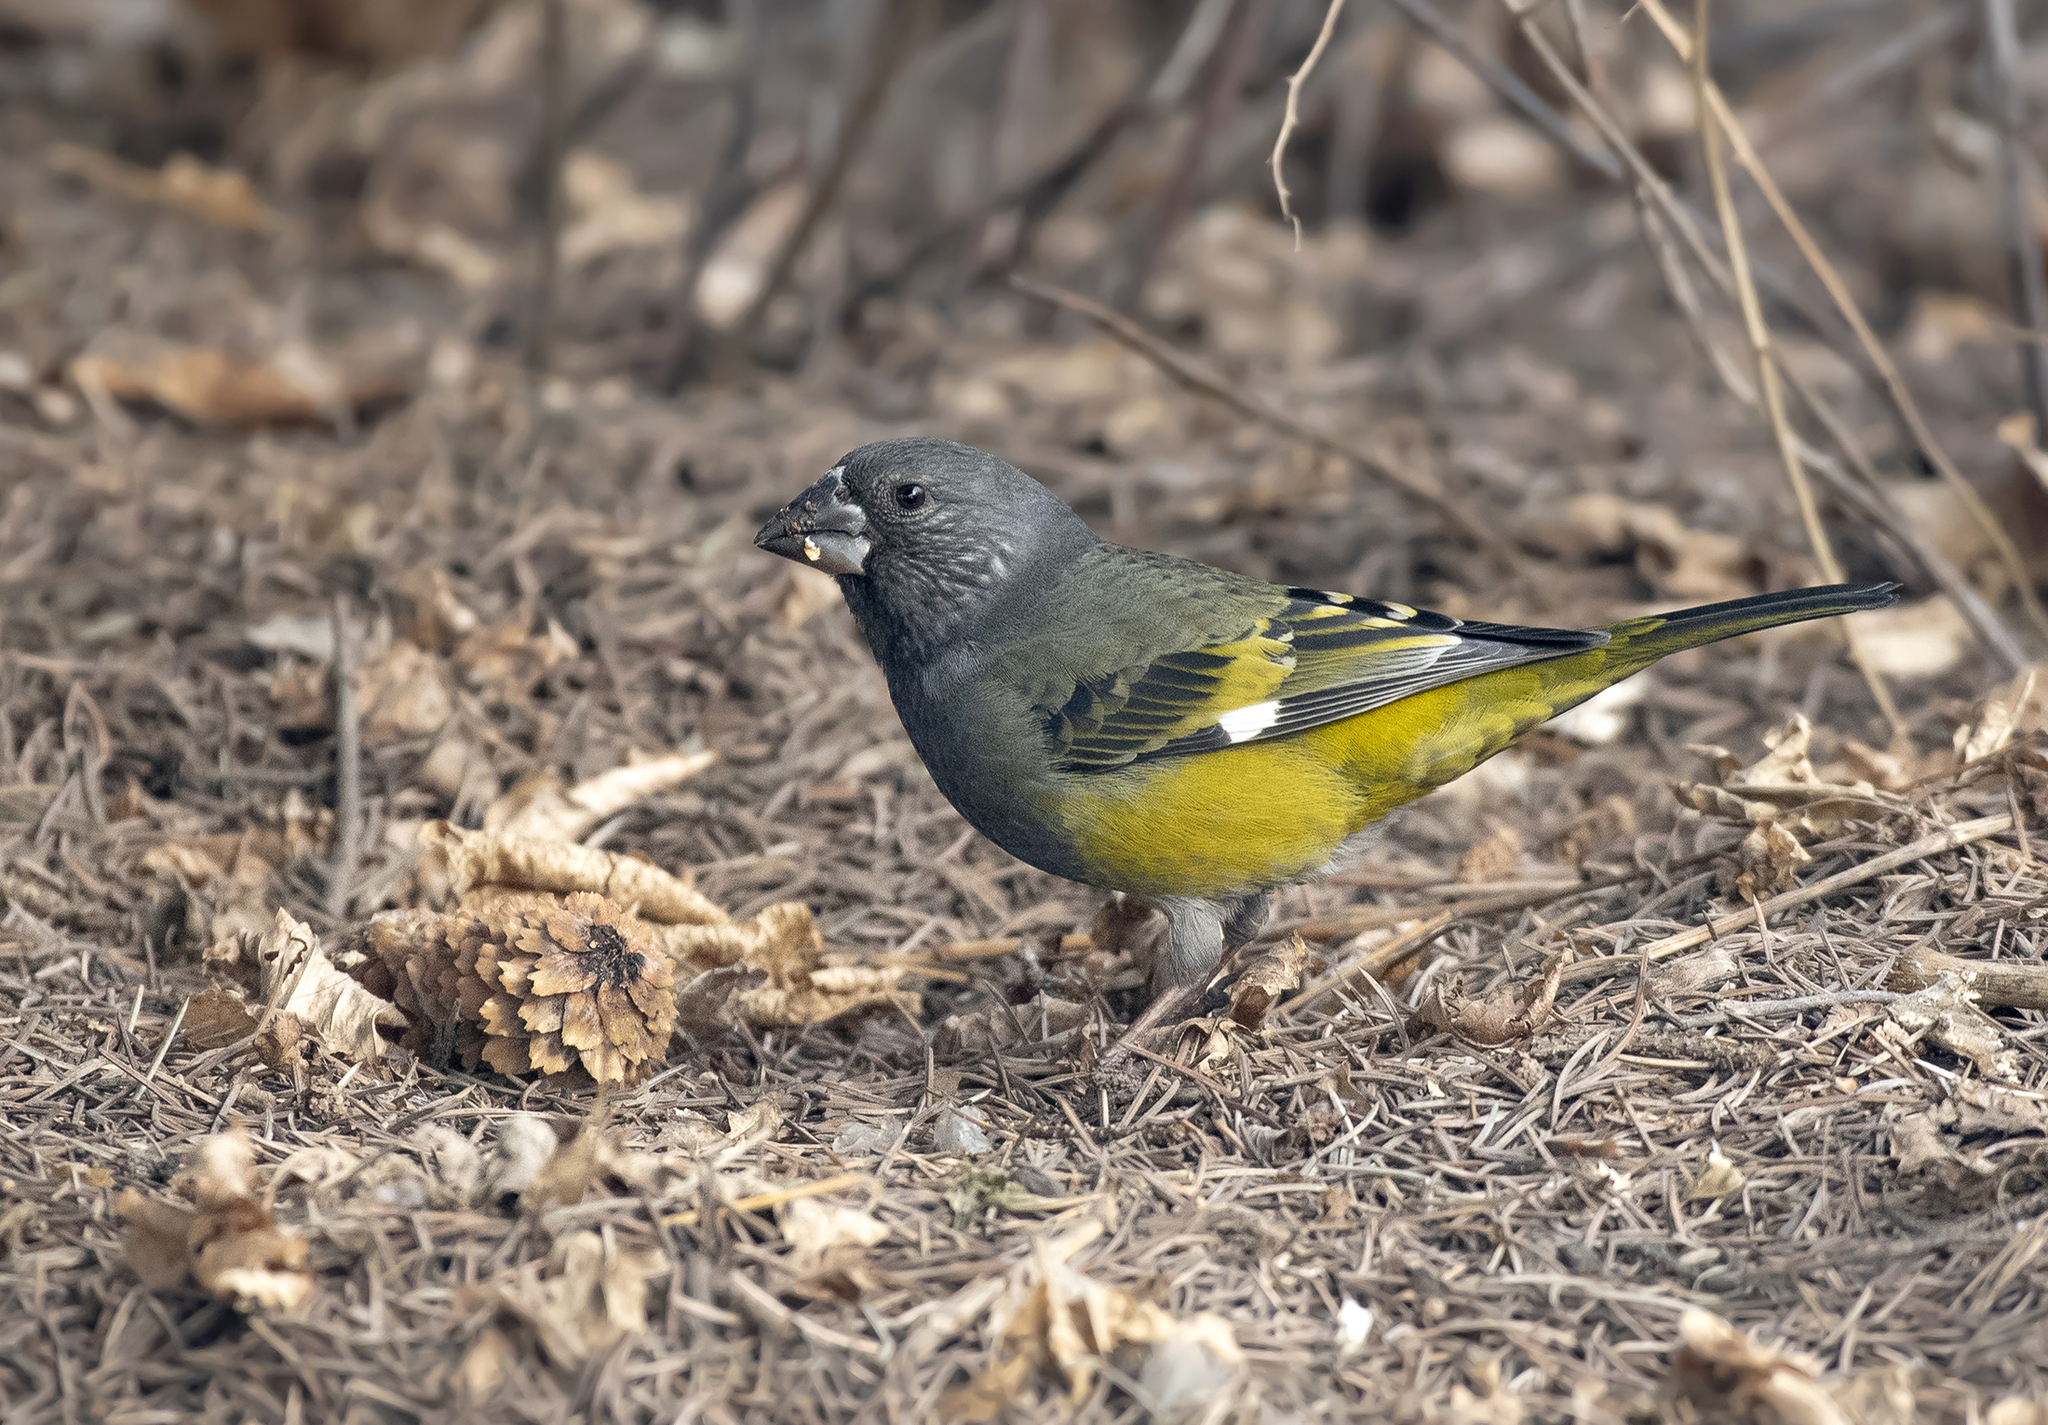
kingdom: Animalia
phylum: Chordata
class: Aves
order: Passeriformes
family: Fringillidae
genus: Mycerobas
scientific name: Mycerobas carnipes
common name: White-winged grosbeak
